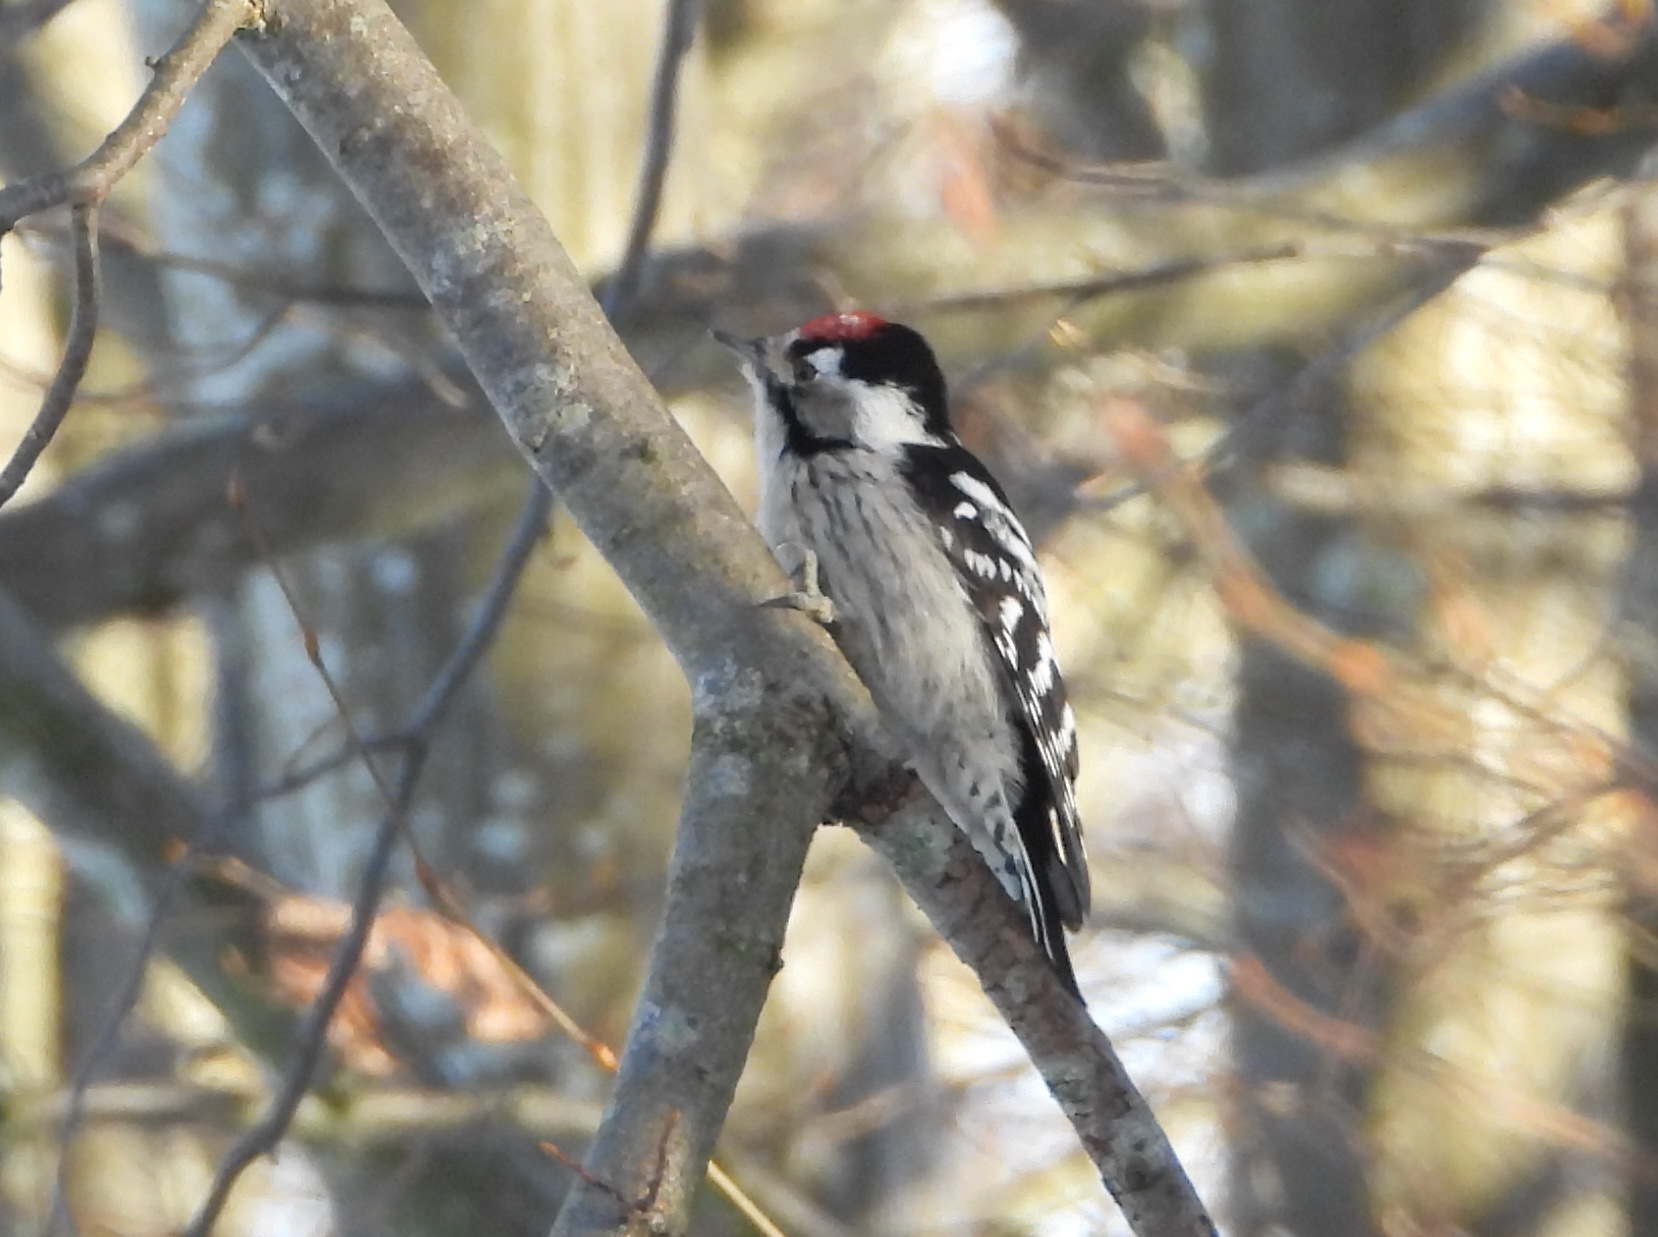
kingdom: Animalia
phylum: Chordata
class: Aves
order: Piciformes
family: Picidae
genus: Dryobates
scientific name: Dryobates minor
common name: Lesser spotted woodpecker
